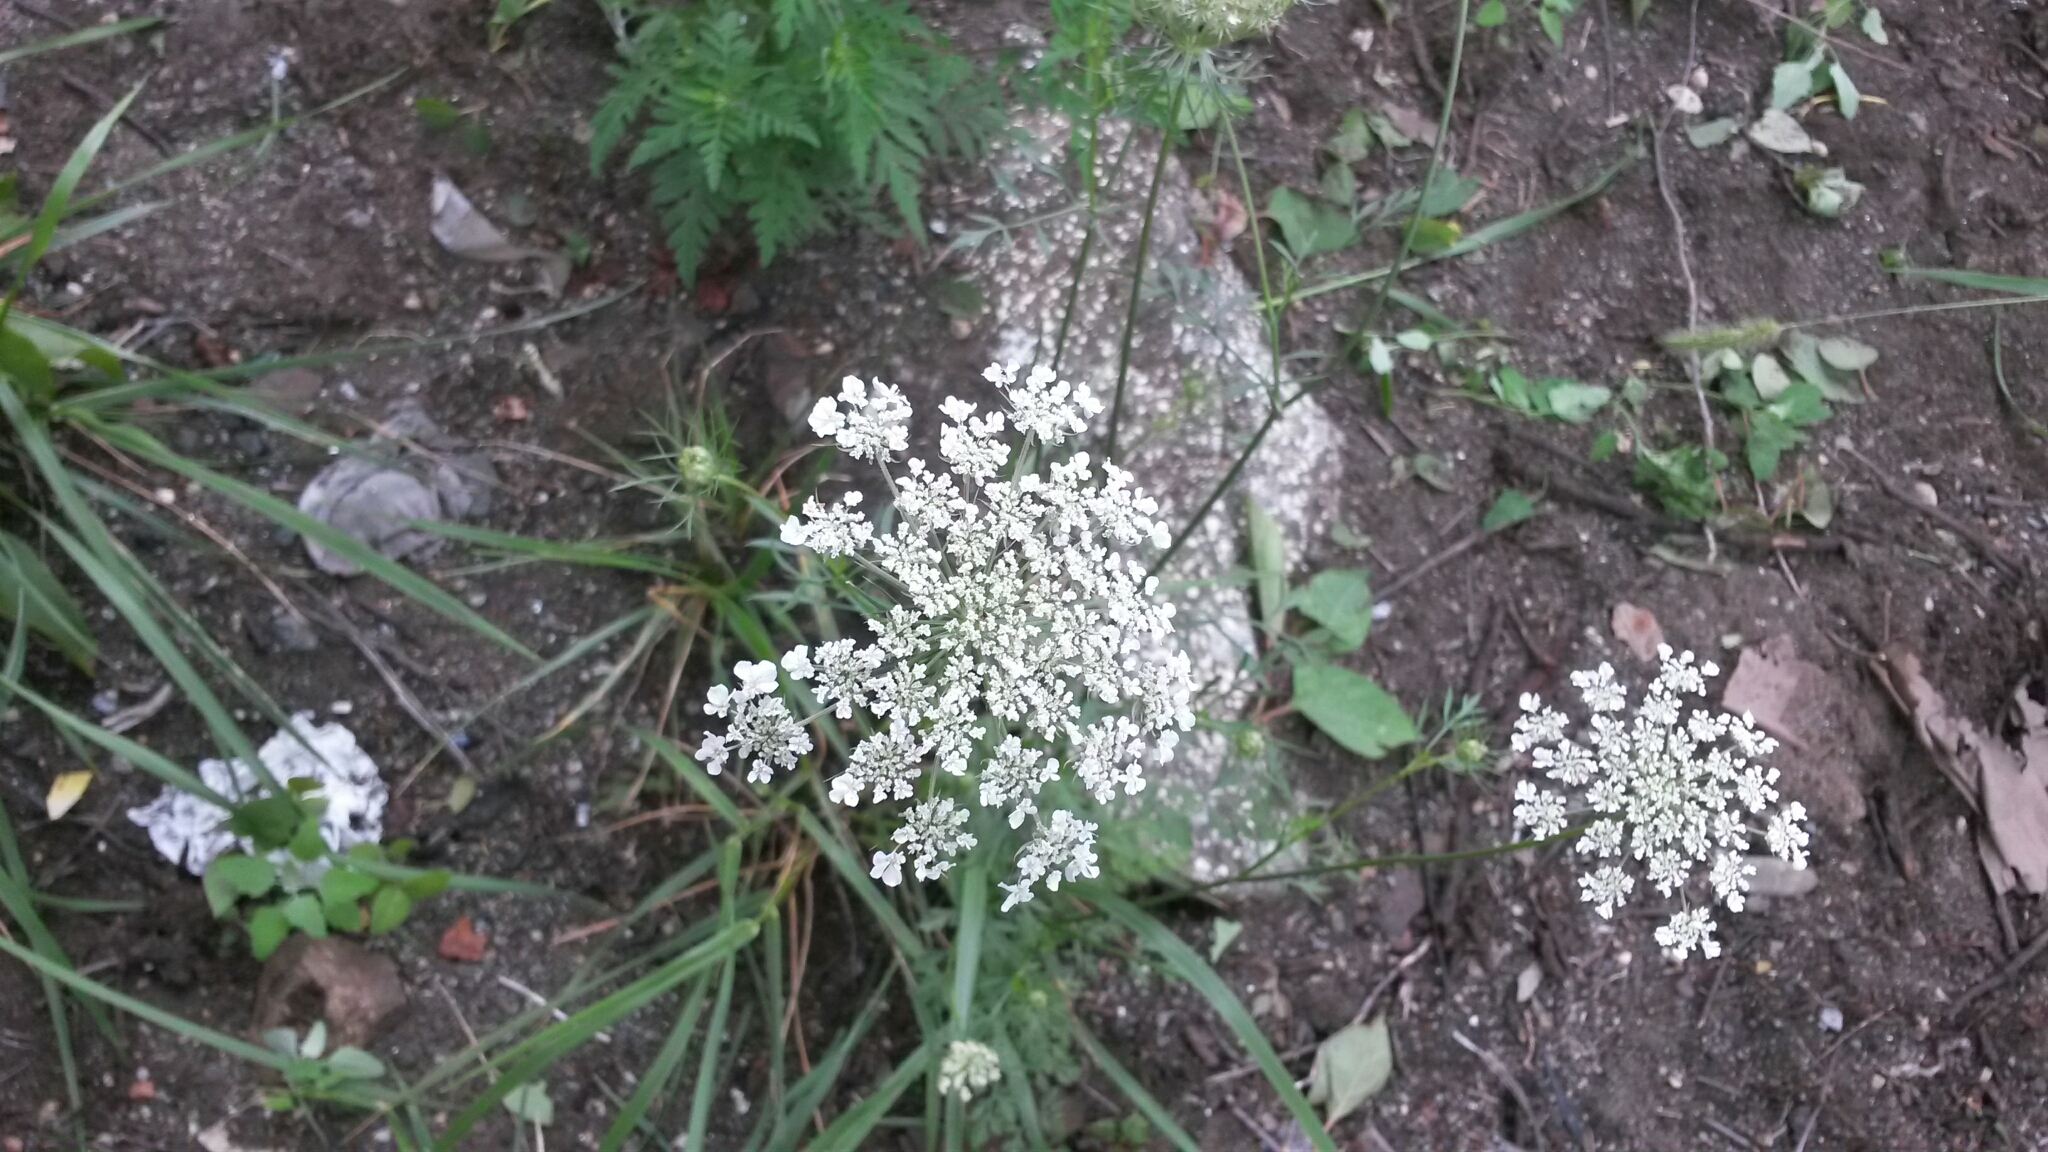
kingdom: Plantae
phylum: Tracheophyta
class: Magnoliopsida
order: Apiales
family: Apiaceae
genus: Daucus
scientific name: Daucus carota
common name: Wild carrot
